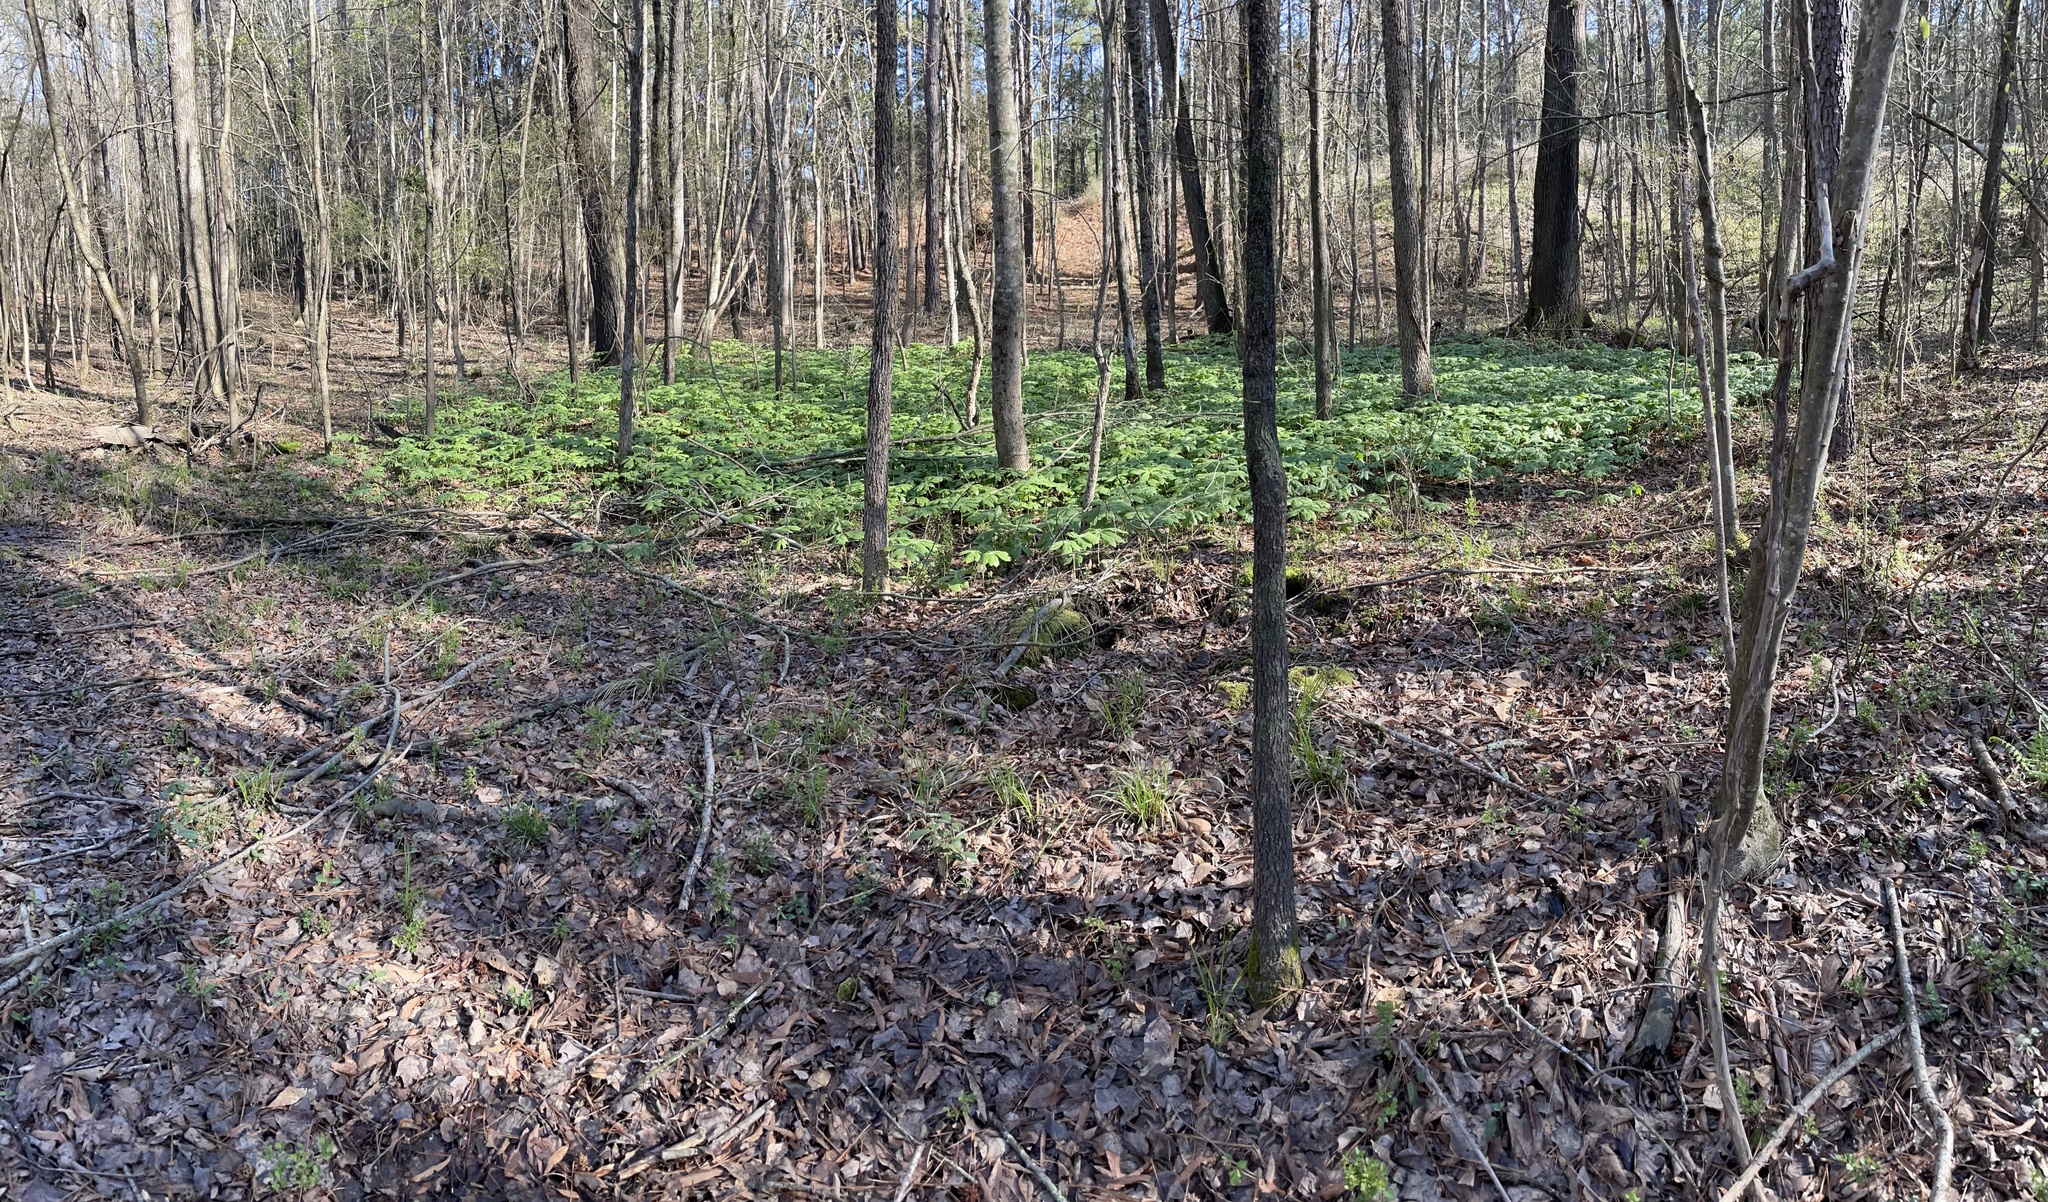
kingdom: Plantae
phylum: Tracheophyta
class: Magnoliopsida
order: Ranunculales
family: Berberidaceae
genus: Podophyllum
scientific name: Podophyllum peltatum
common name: Wild mandrake
